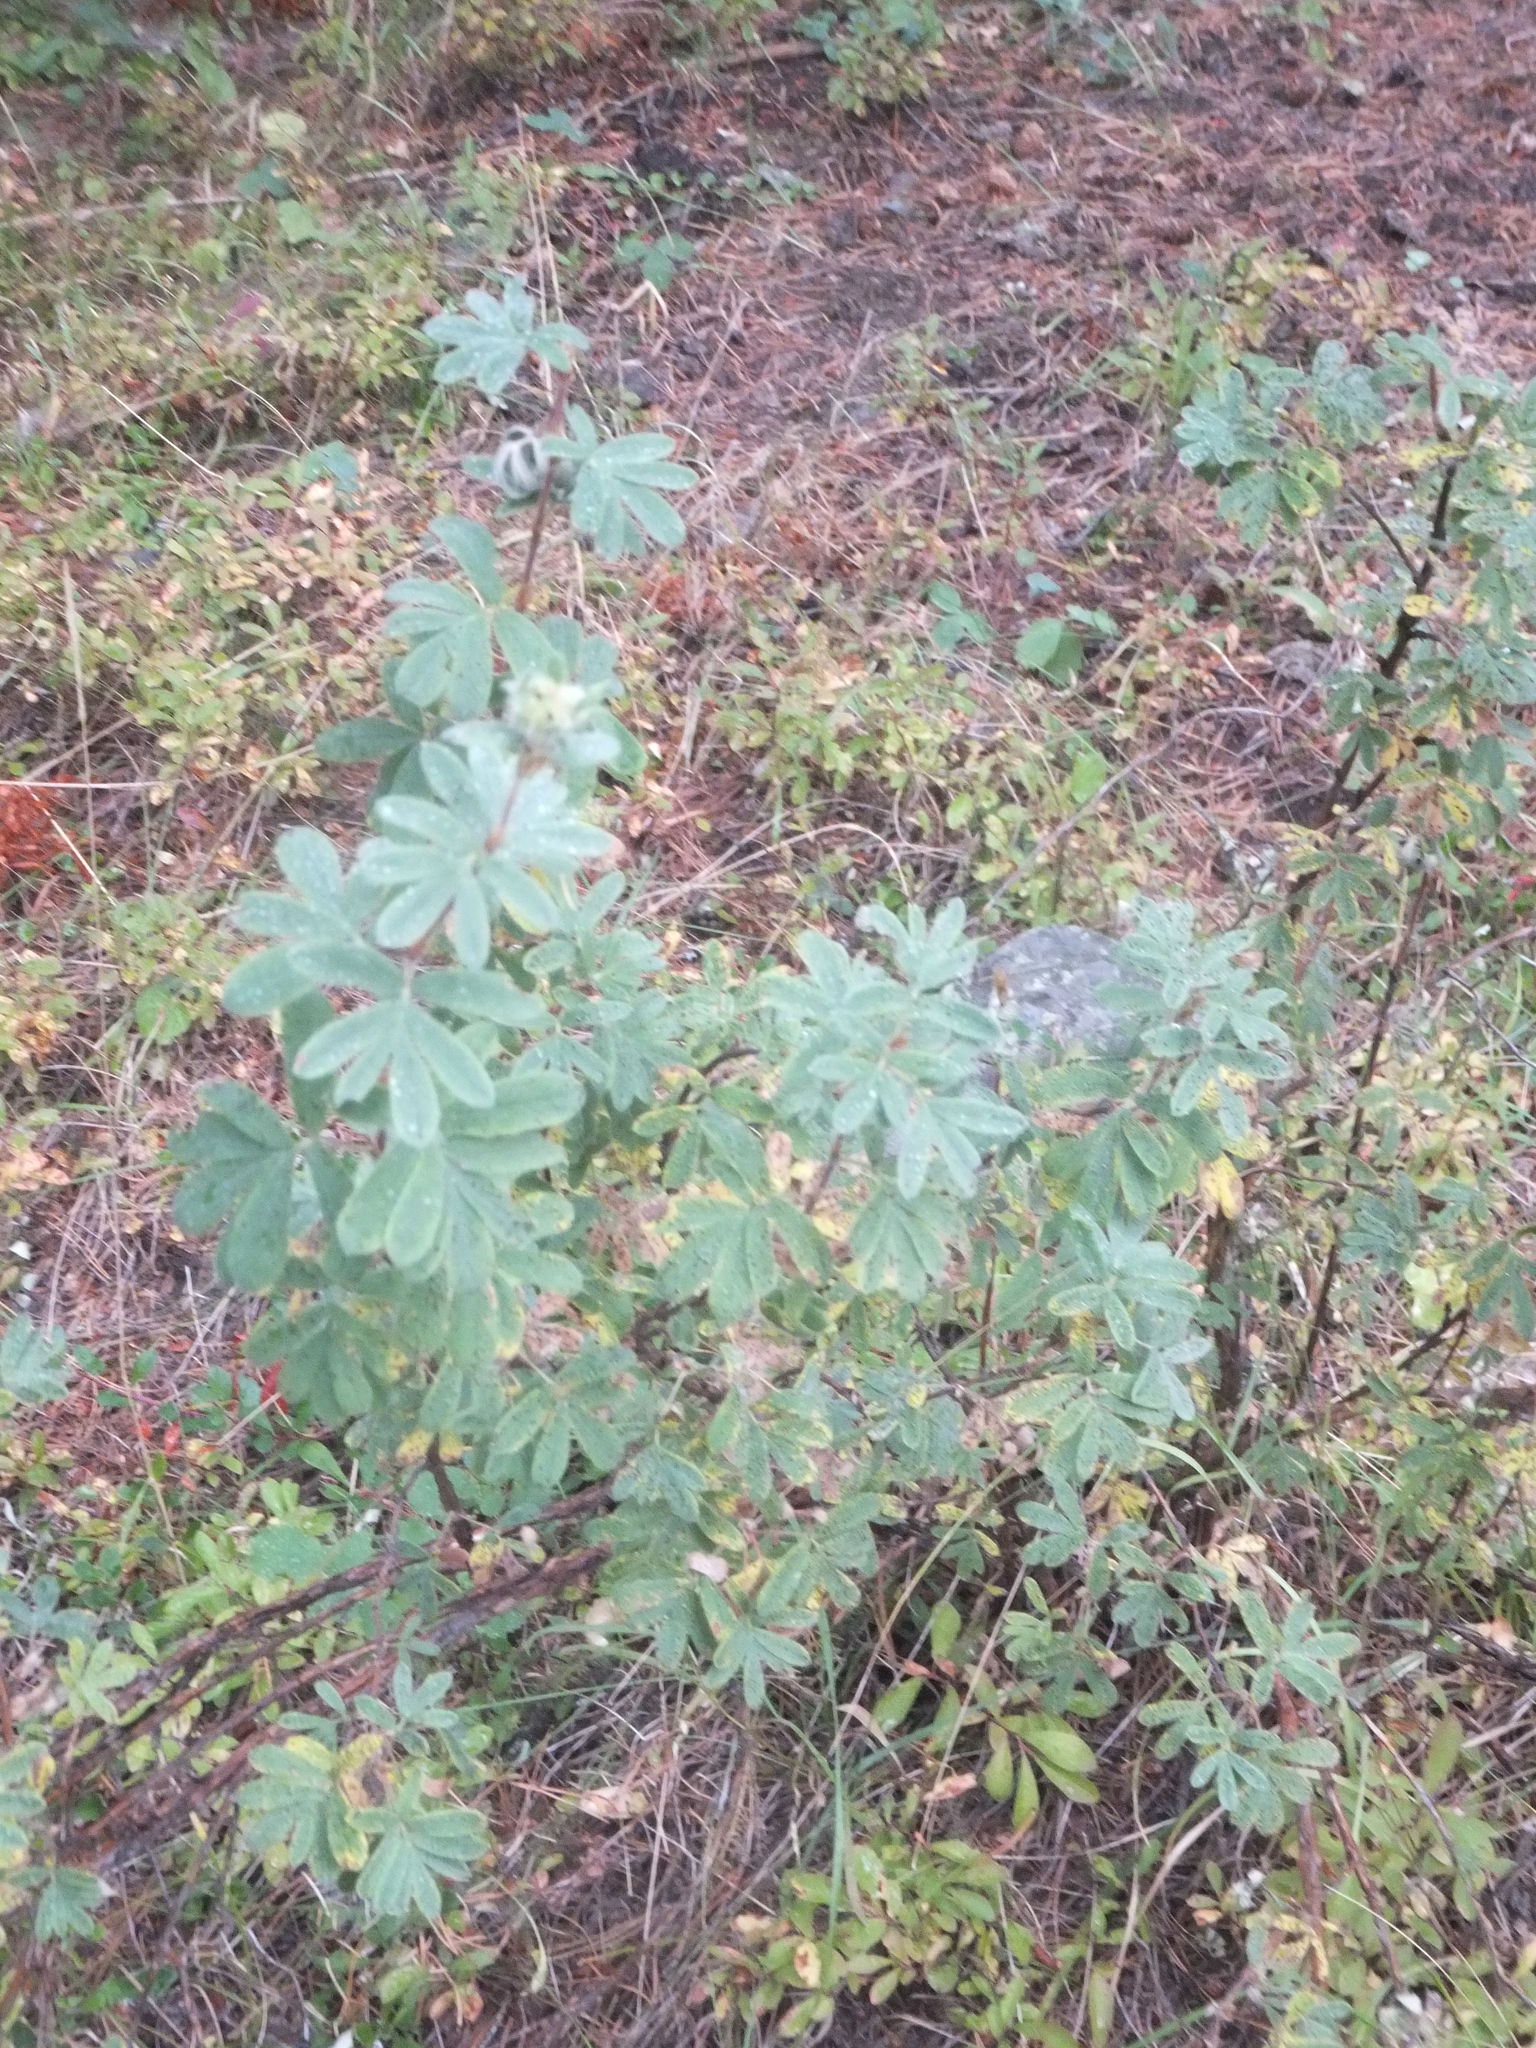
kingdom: Plantae
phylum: Tracheophyta
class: Magnoliopsida
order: Rosales
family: Rosaceae
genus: Dasiphora
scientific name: Dasiphora fruticosa
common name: Shrubby cinquefoil
